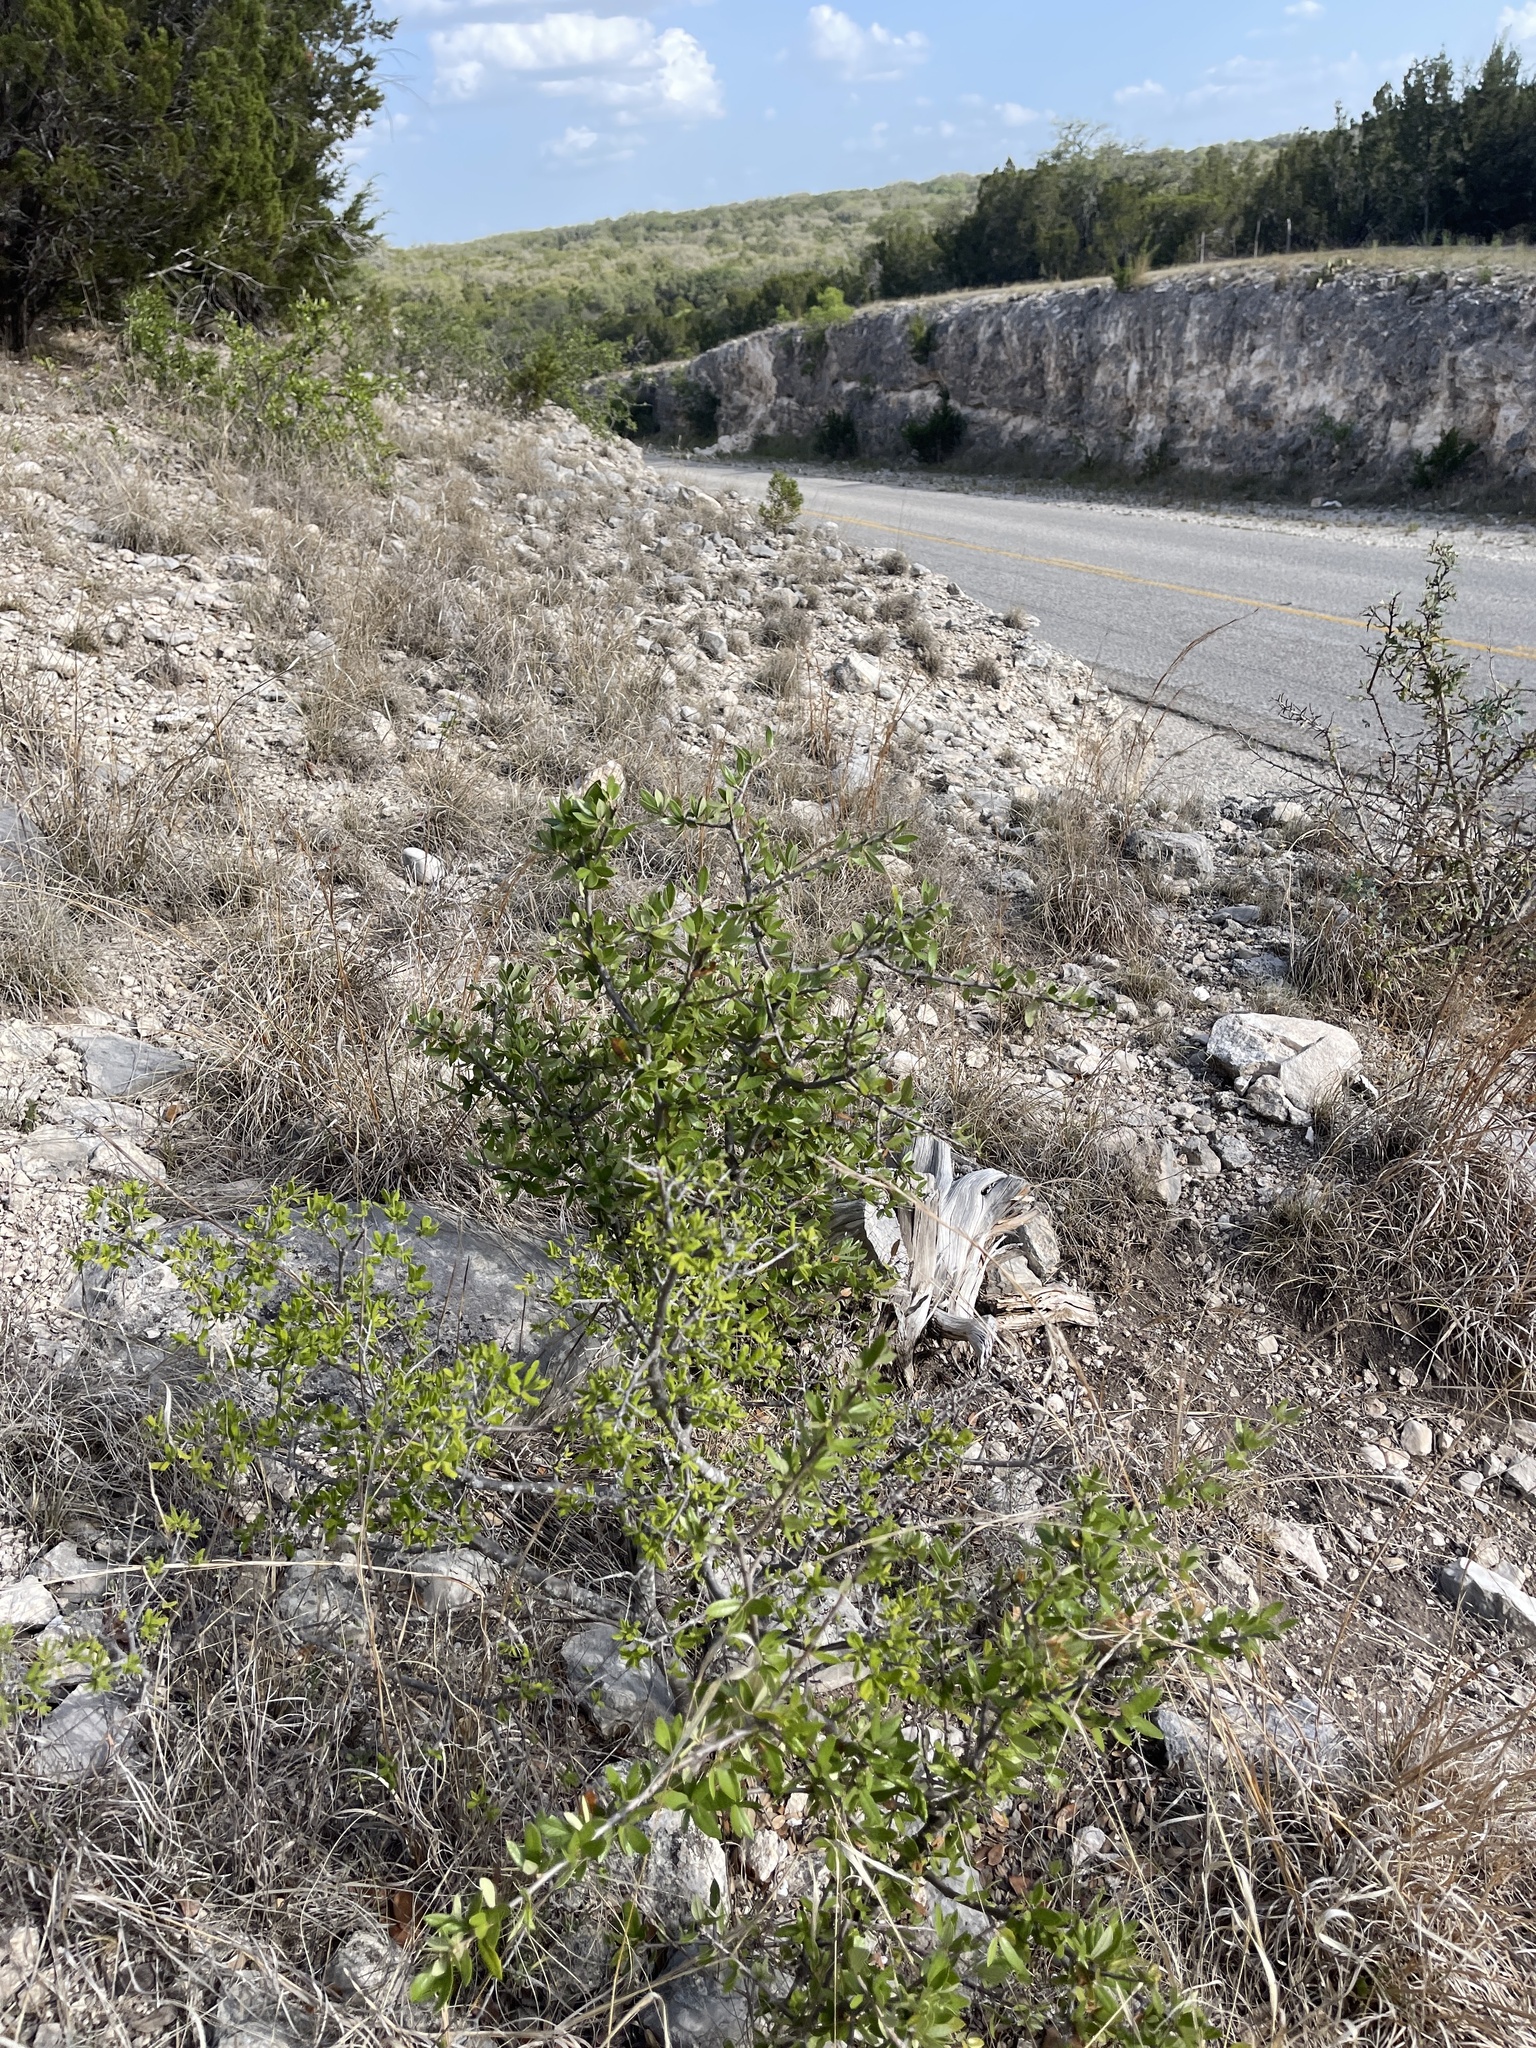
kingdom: Plantae
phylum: Tracheophyta
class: Magnoliopsida
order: Fagales
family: Fagaceae
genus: Quercus
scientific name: Quercus fusiformis
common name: Texas live oak
